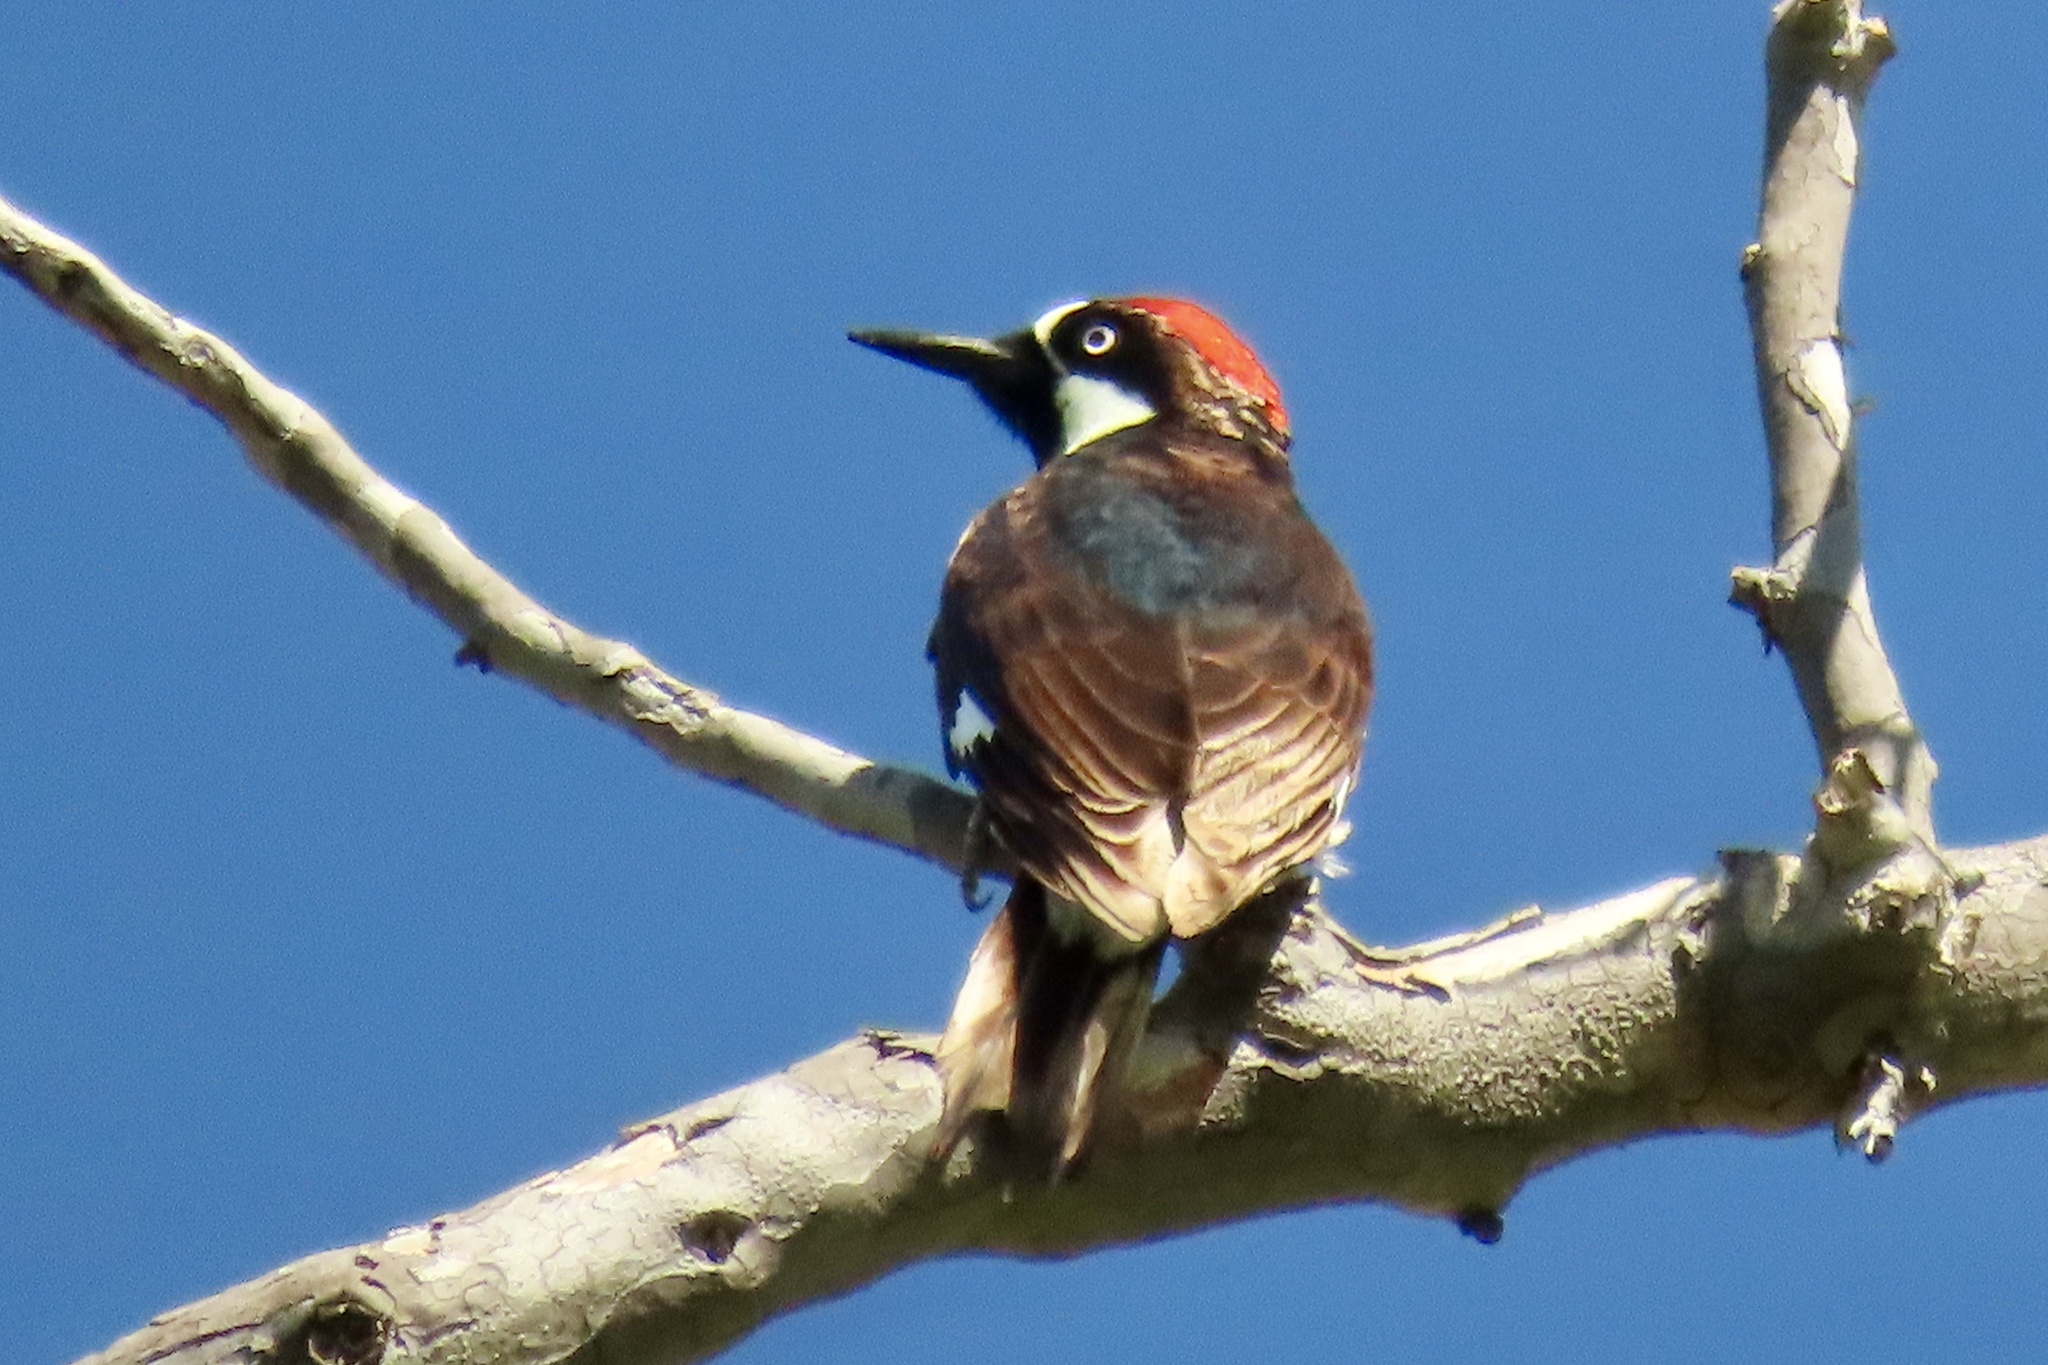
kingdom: Animalia
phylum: Chordata
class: Aves
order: Piciformes
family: Picidae
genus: Melanerpes
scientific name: Melanerpes formicivorus
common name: Acorn woodpecker
